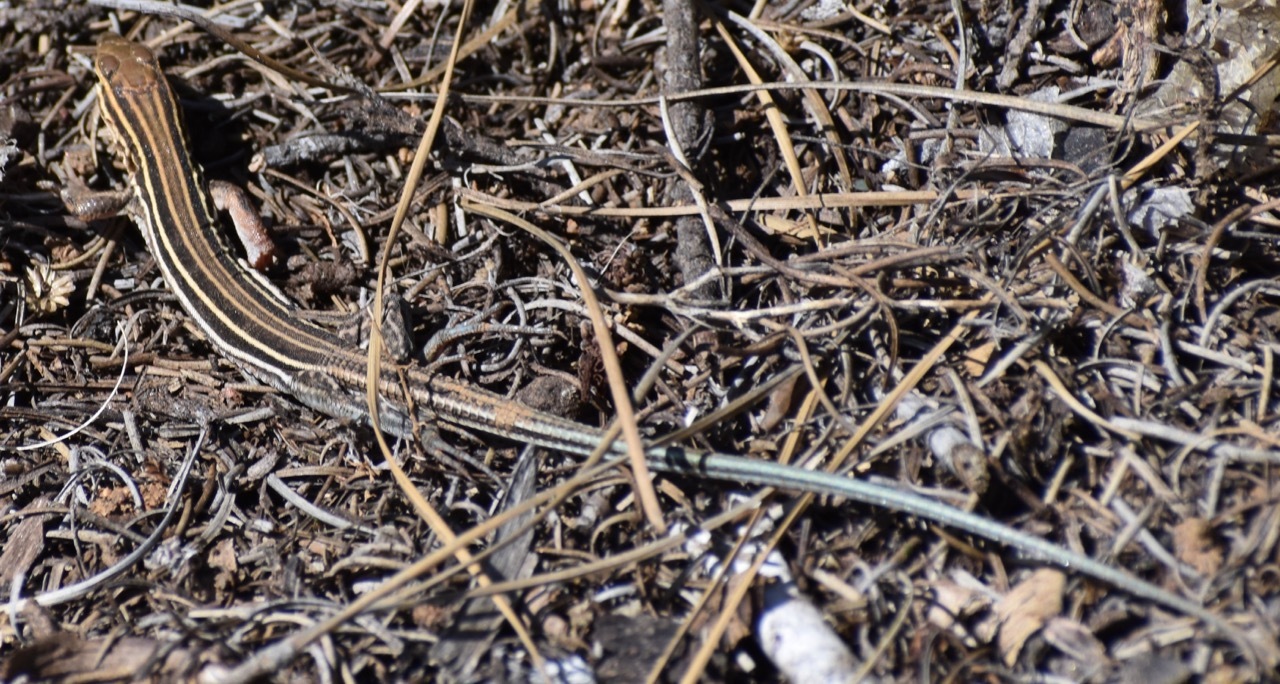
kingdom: Animalia
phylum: Chordata
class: Squamata
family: Teiidae
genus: Aspidoscelis
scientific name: Aspidoscelis hyperythrus
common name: Orange-throated race-runner
